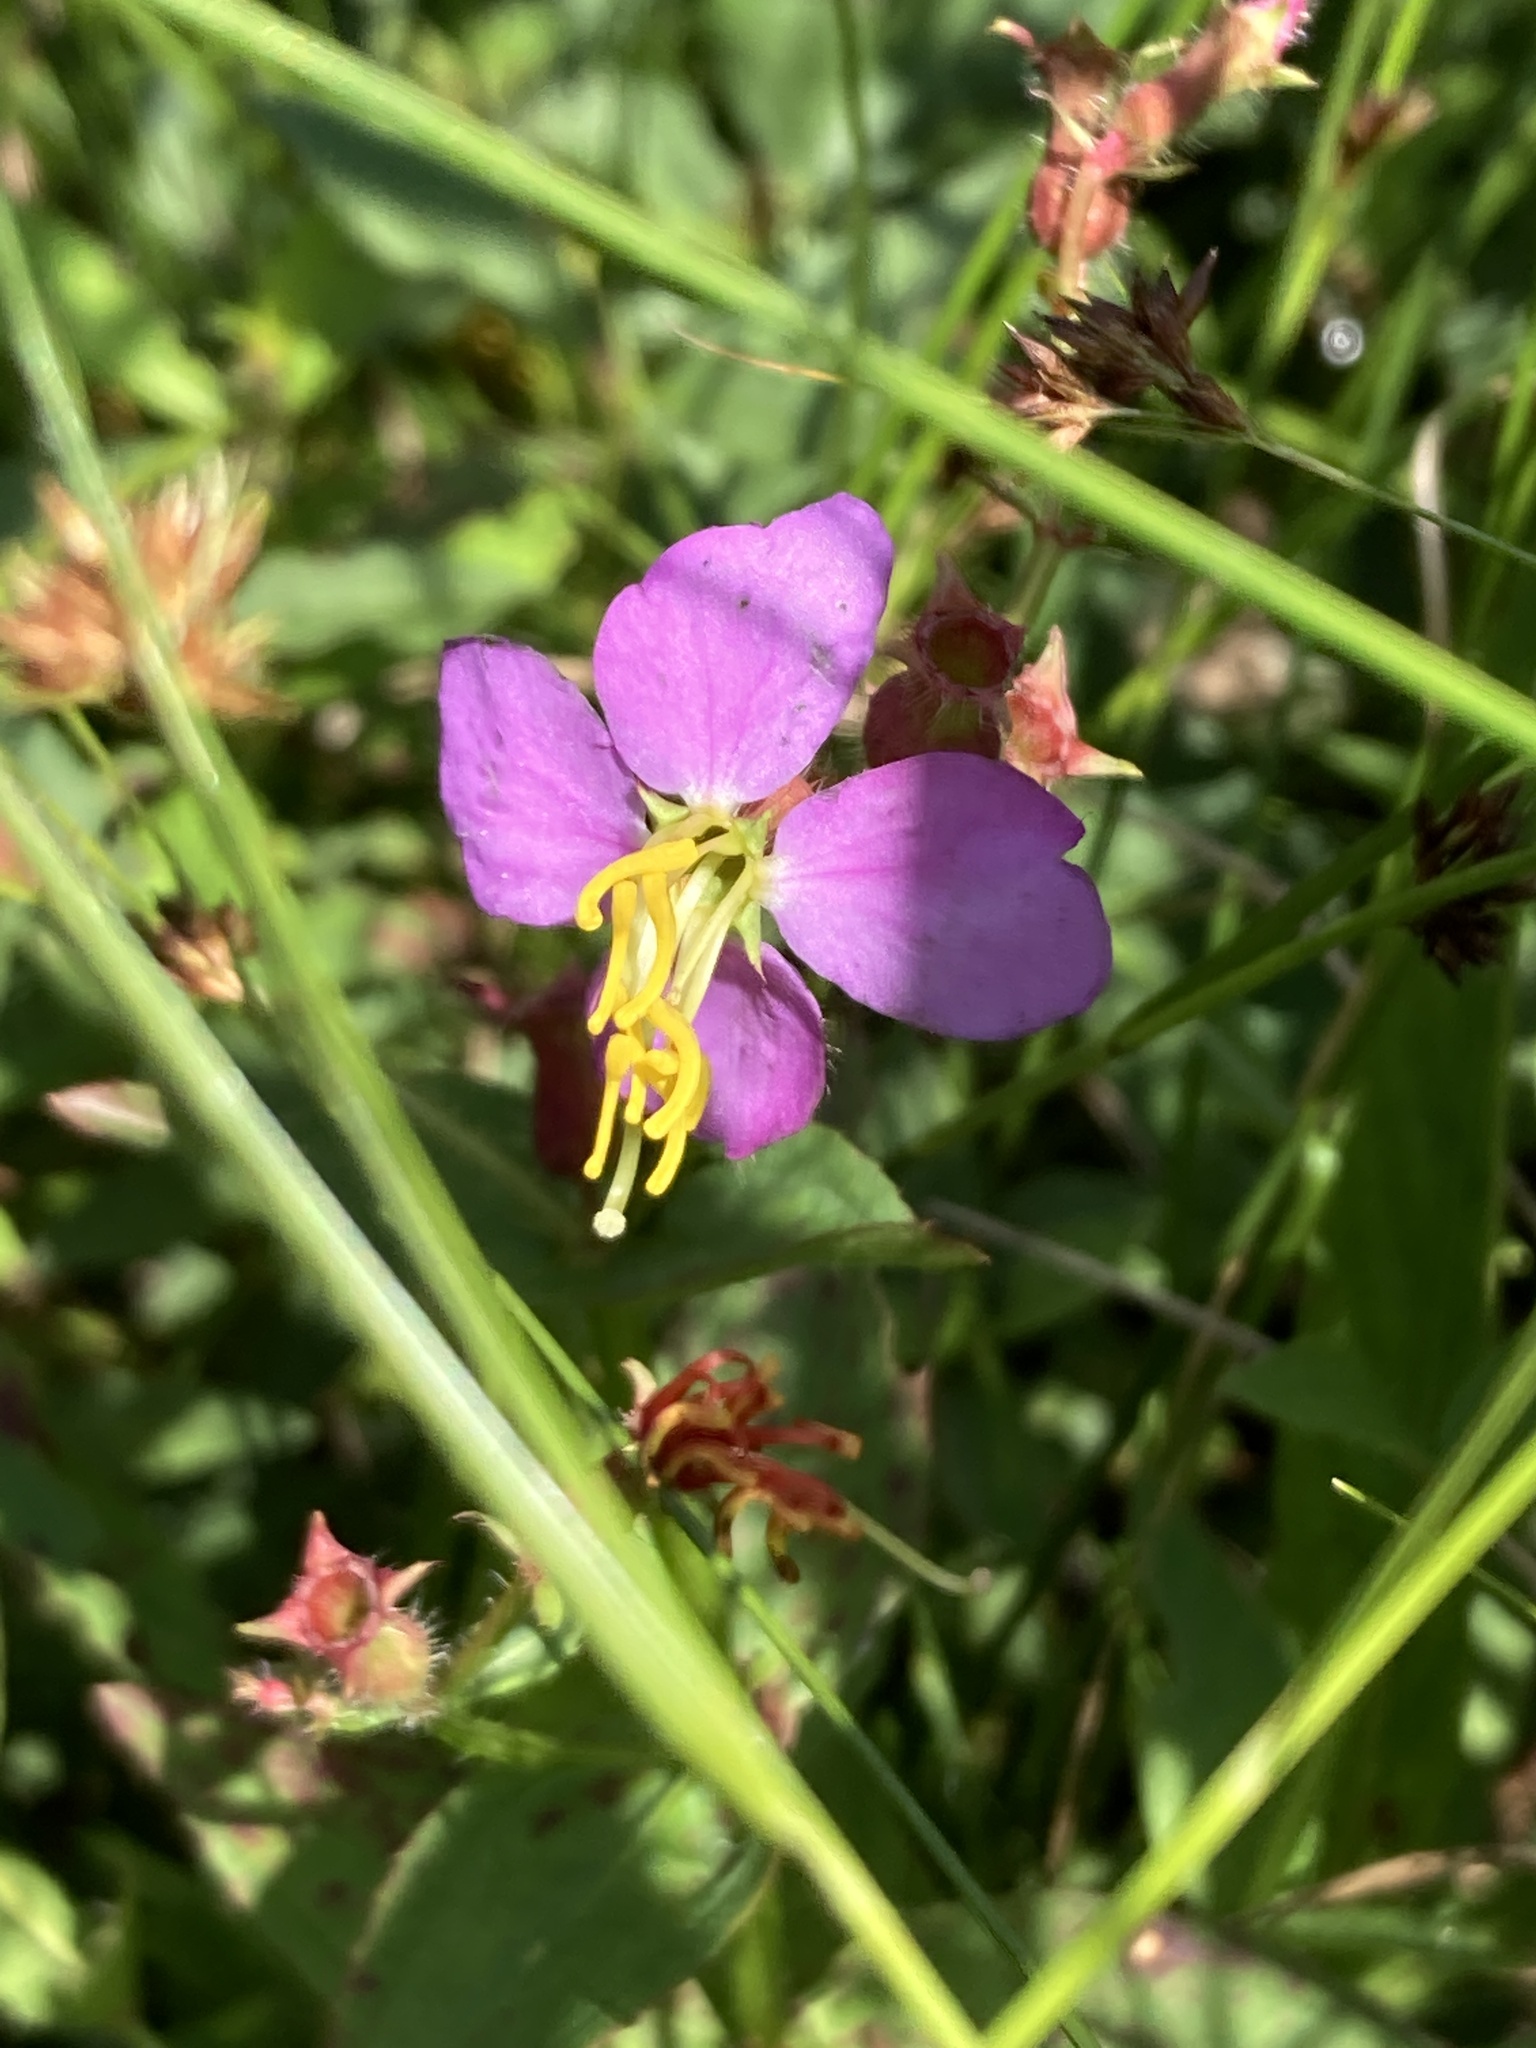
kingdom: Plantae
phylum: Tracheophyta
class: Magnoliopsida
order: Myrtales
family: Melastomataceae
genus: Rhexia
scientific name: Rhexia virginica
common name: Common meadow beauty
